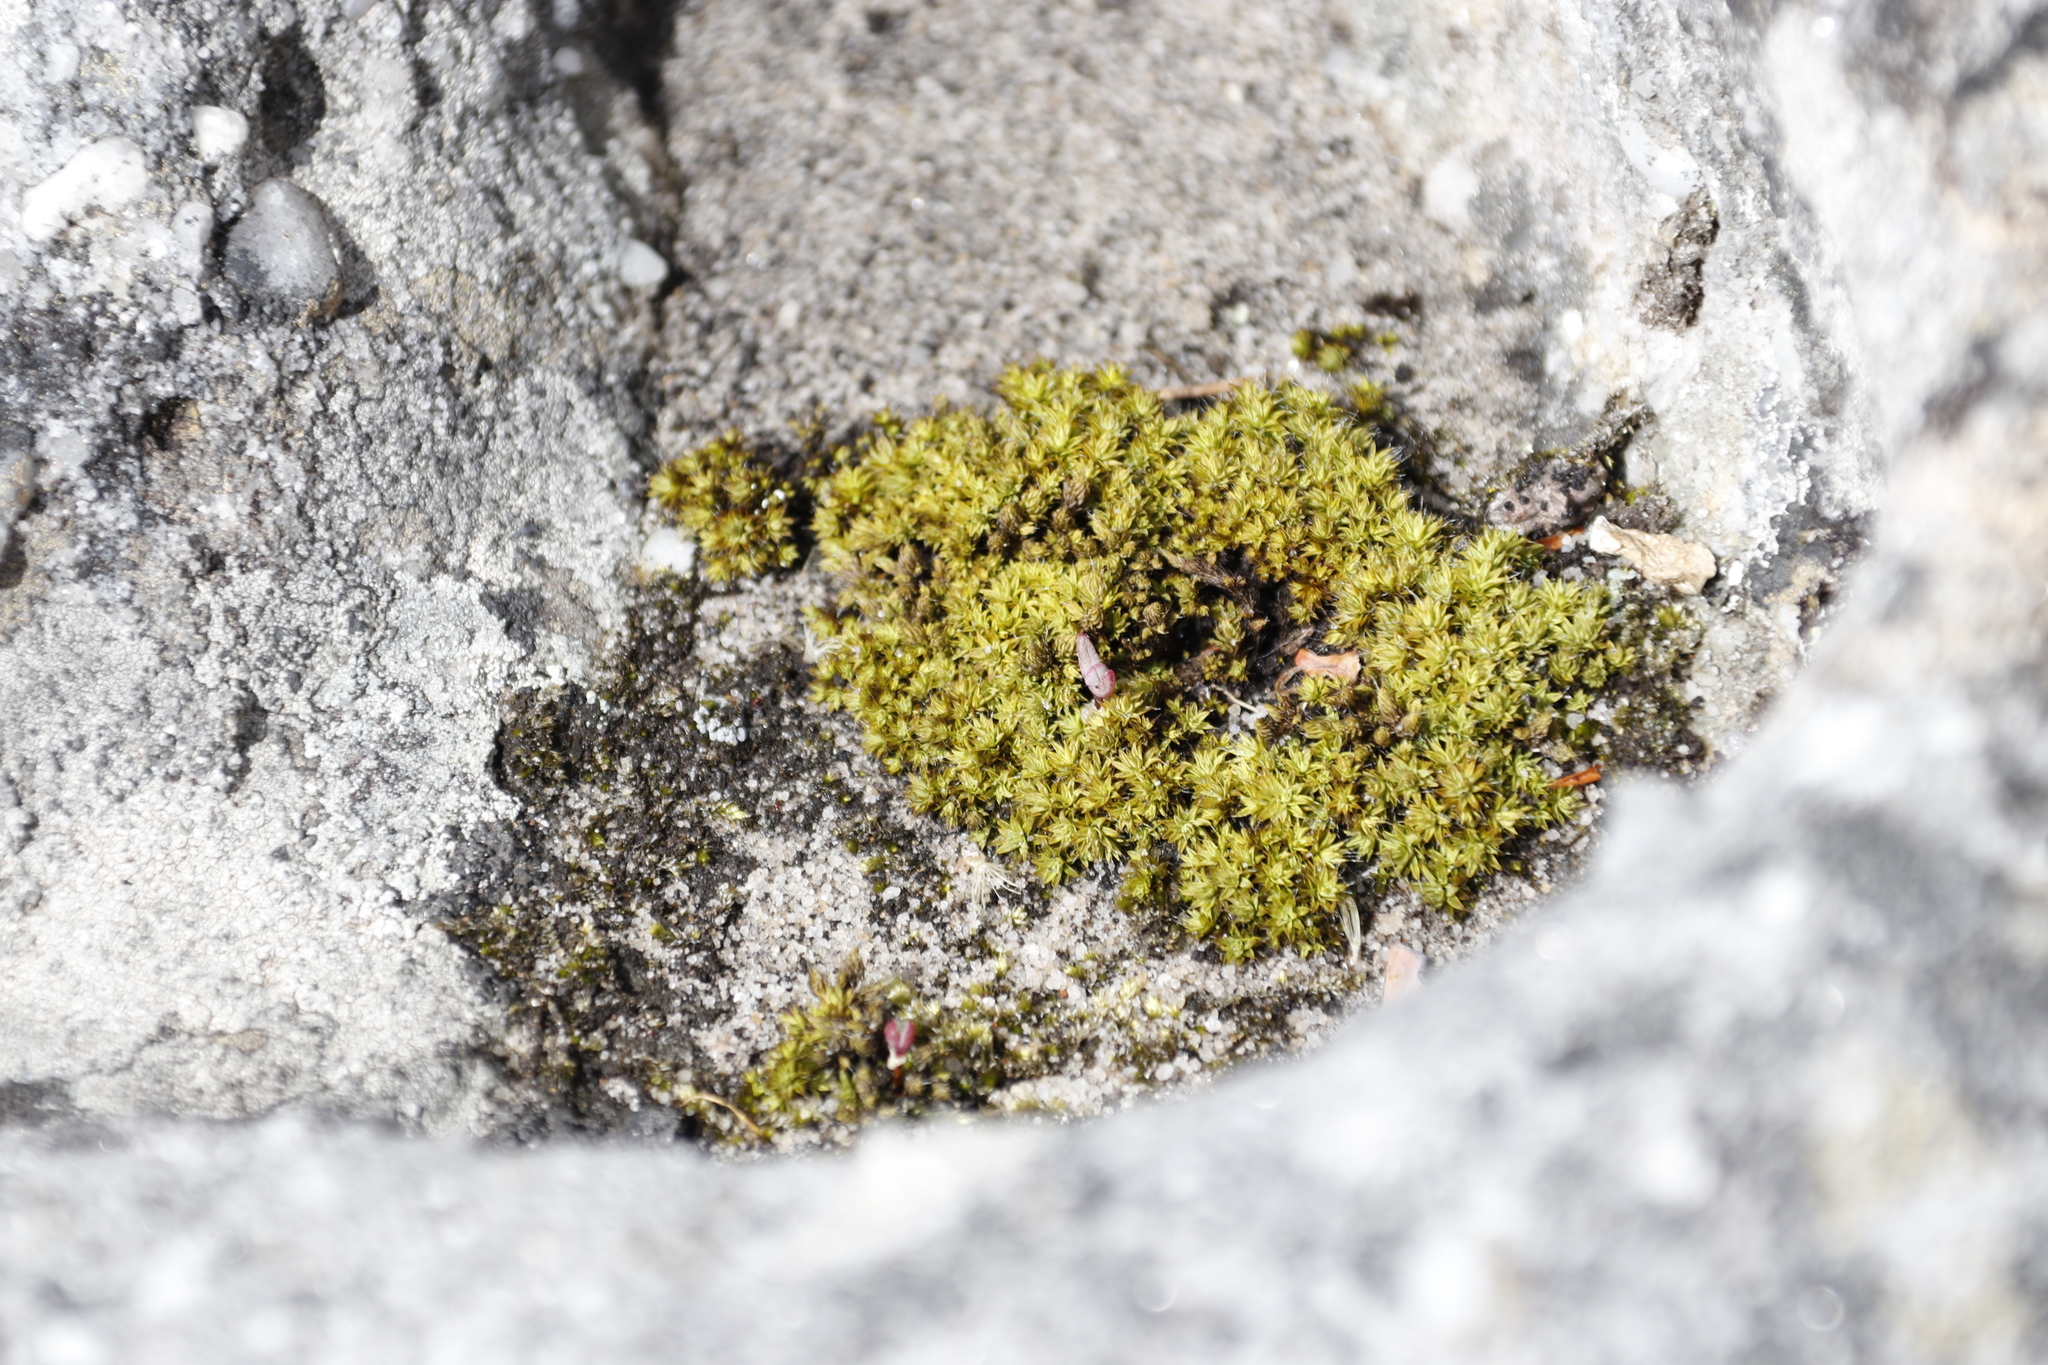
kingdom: Plantae
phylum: Bryophyta
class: Bryopsida
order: Pottiales
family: Pottiaceae
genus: Pseudocrossidium
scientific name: Pseudocrossidium crinitum
